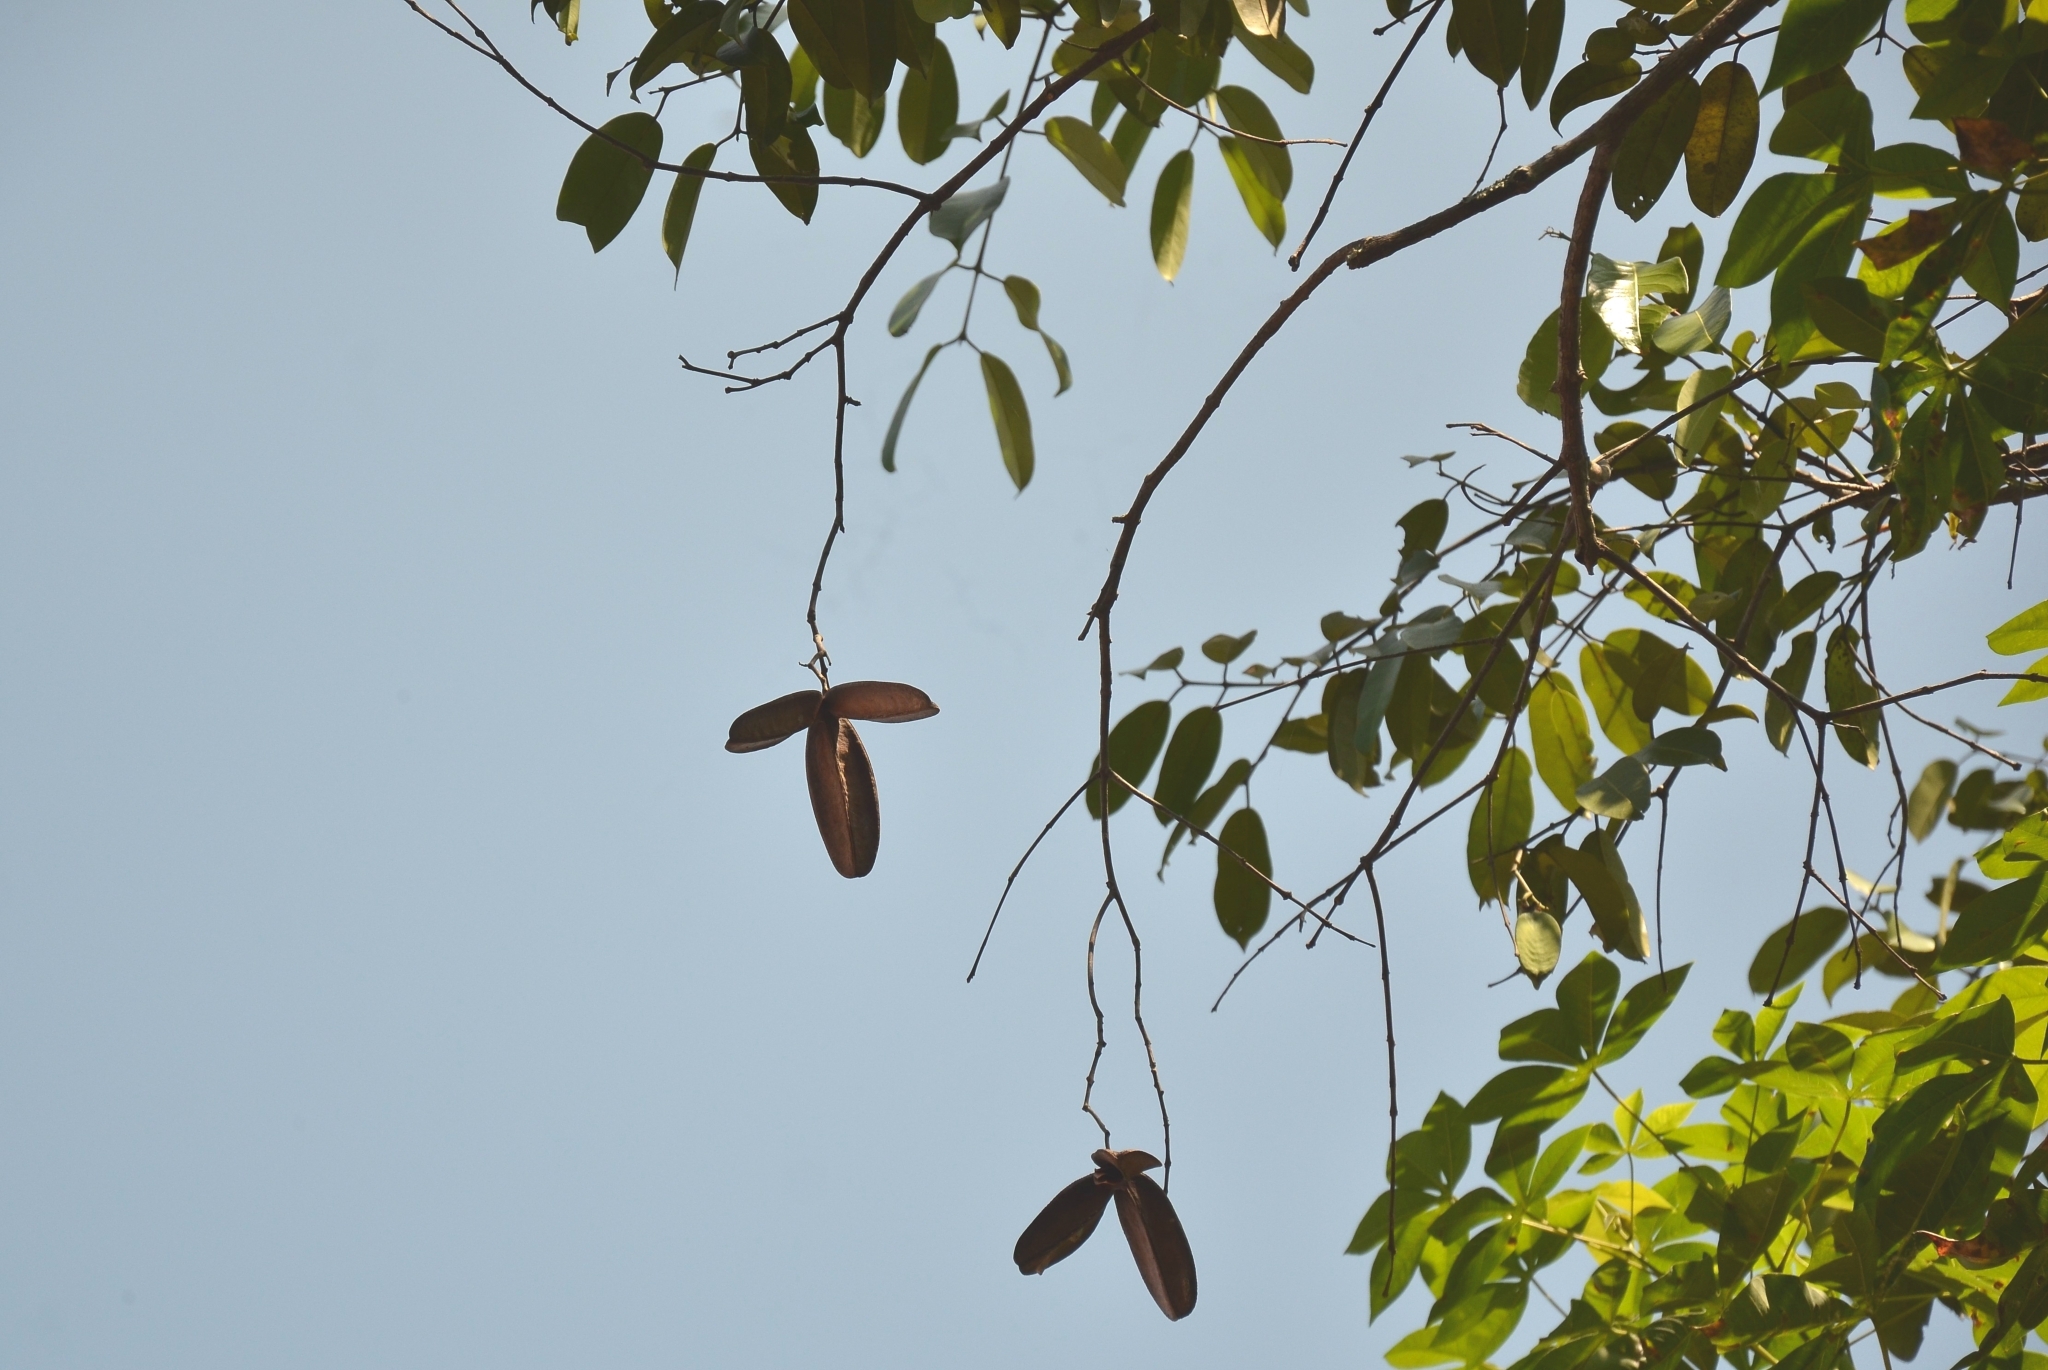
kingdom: Plantae
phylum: Tracheophyta
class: Magnoliopsida
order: Celastrales
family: Celastraceae
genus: Lophopetalum
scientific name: Lophopetalum wightianum
